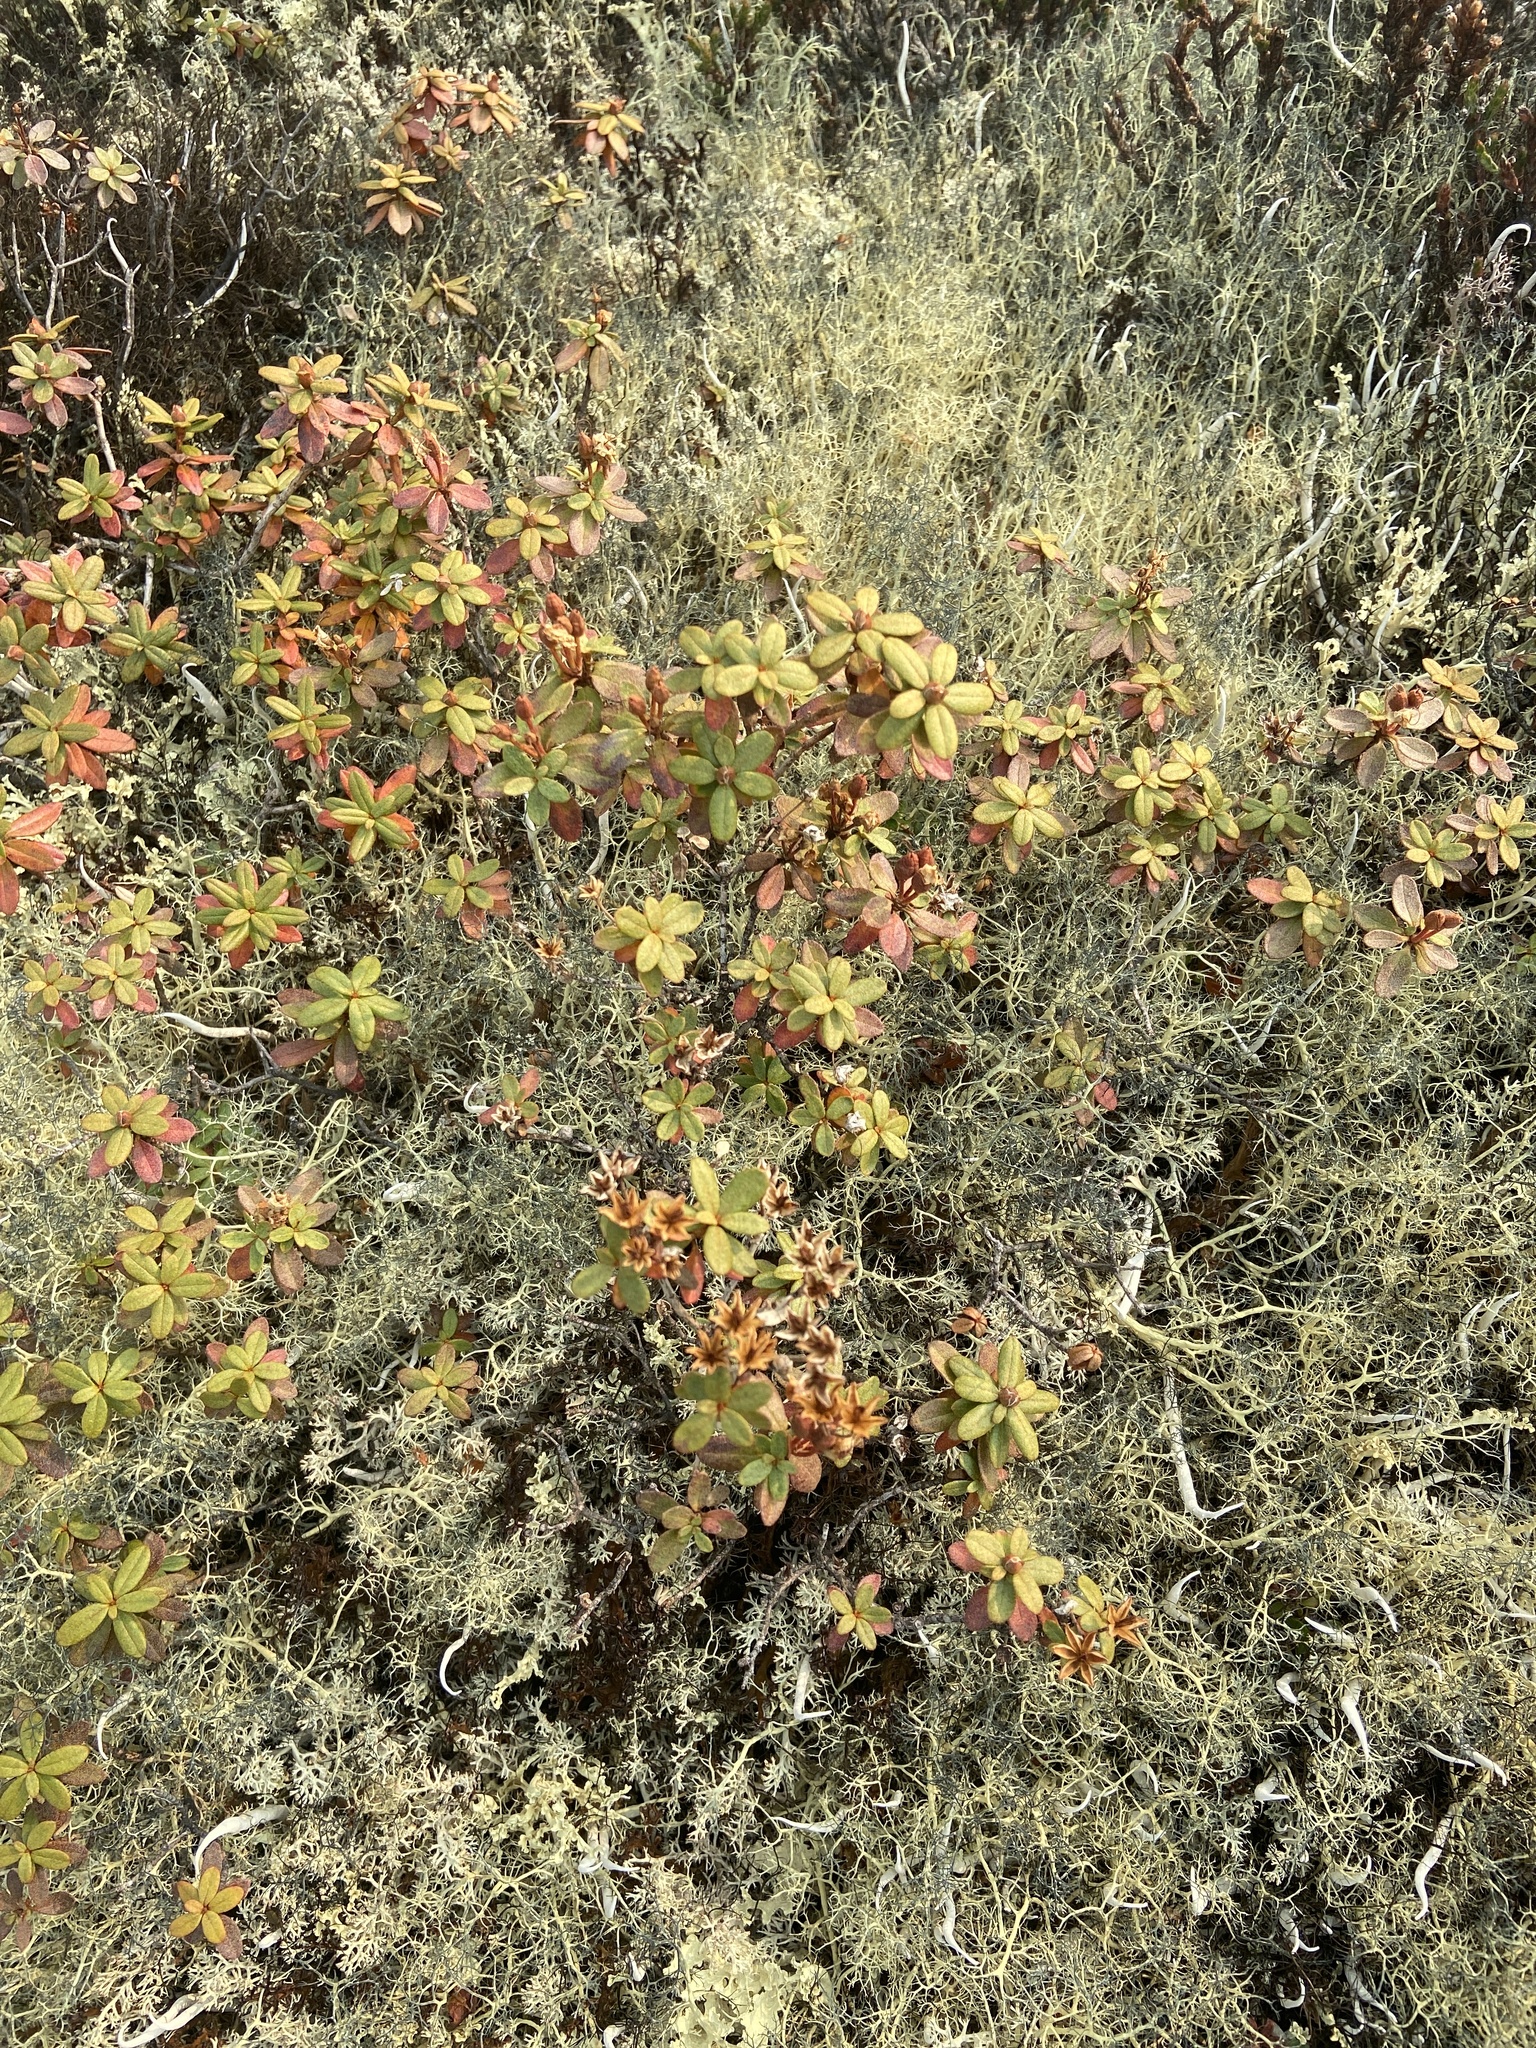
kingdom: Plantae
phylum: Tracheophyta
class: Magnoliopsida
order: Ericales
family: Ericaceae
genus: Rhododendron
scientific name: Rhododendron parvifolium
